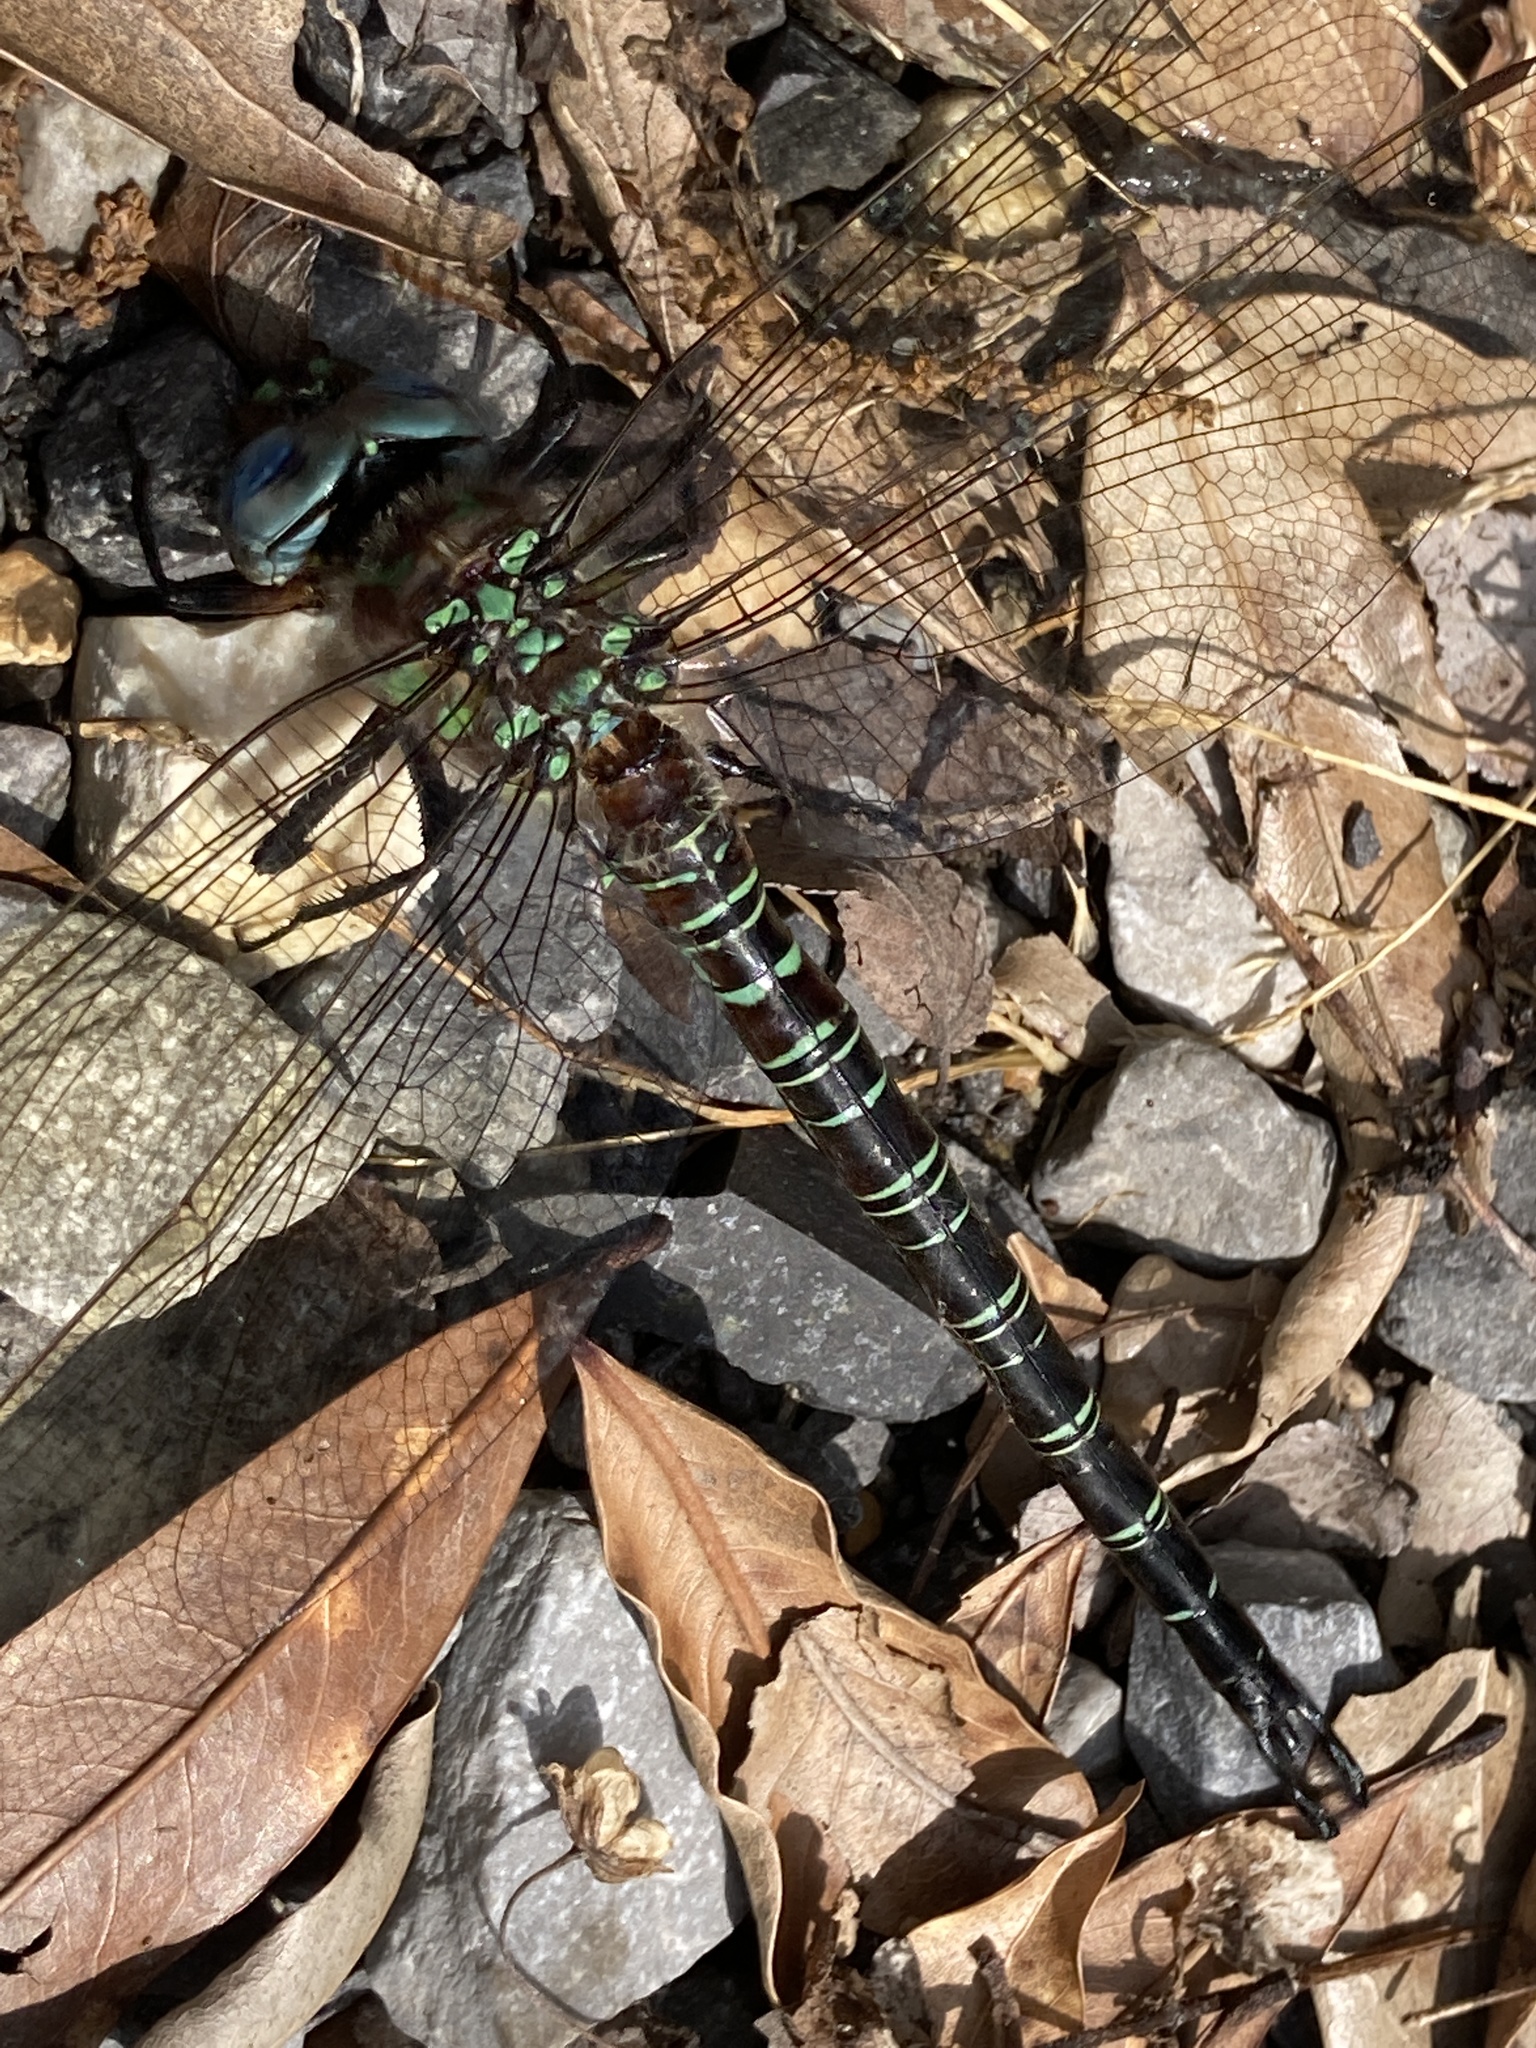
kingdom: Animalia
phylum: Arthropoda
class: Insecta
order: Odonata
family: Aeshnidae
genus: Epiaeschna
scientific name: Epiaeschna heros
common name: Swamp darner
